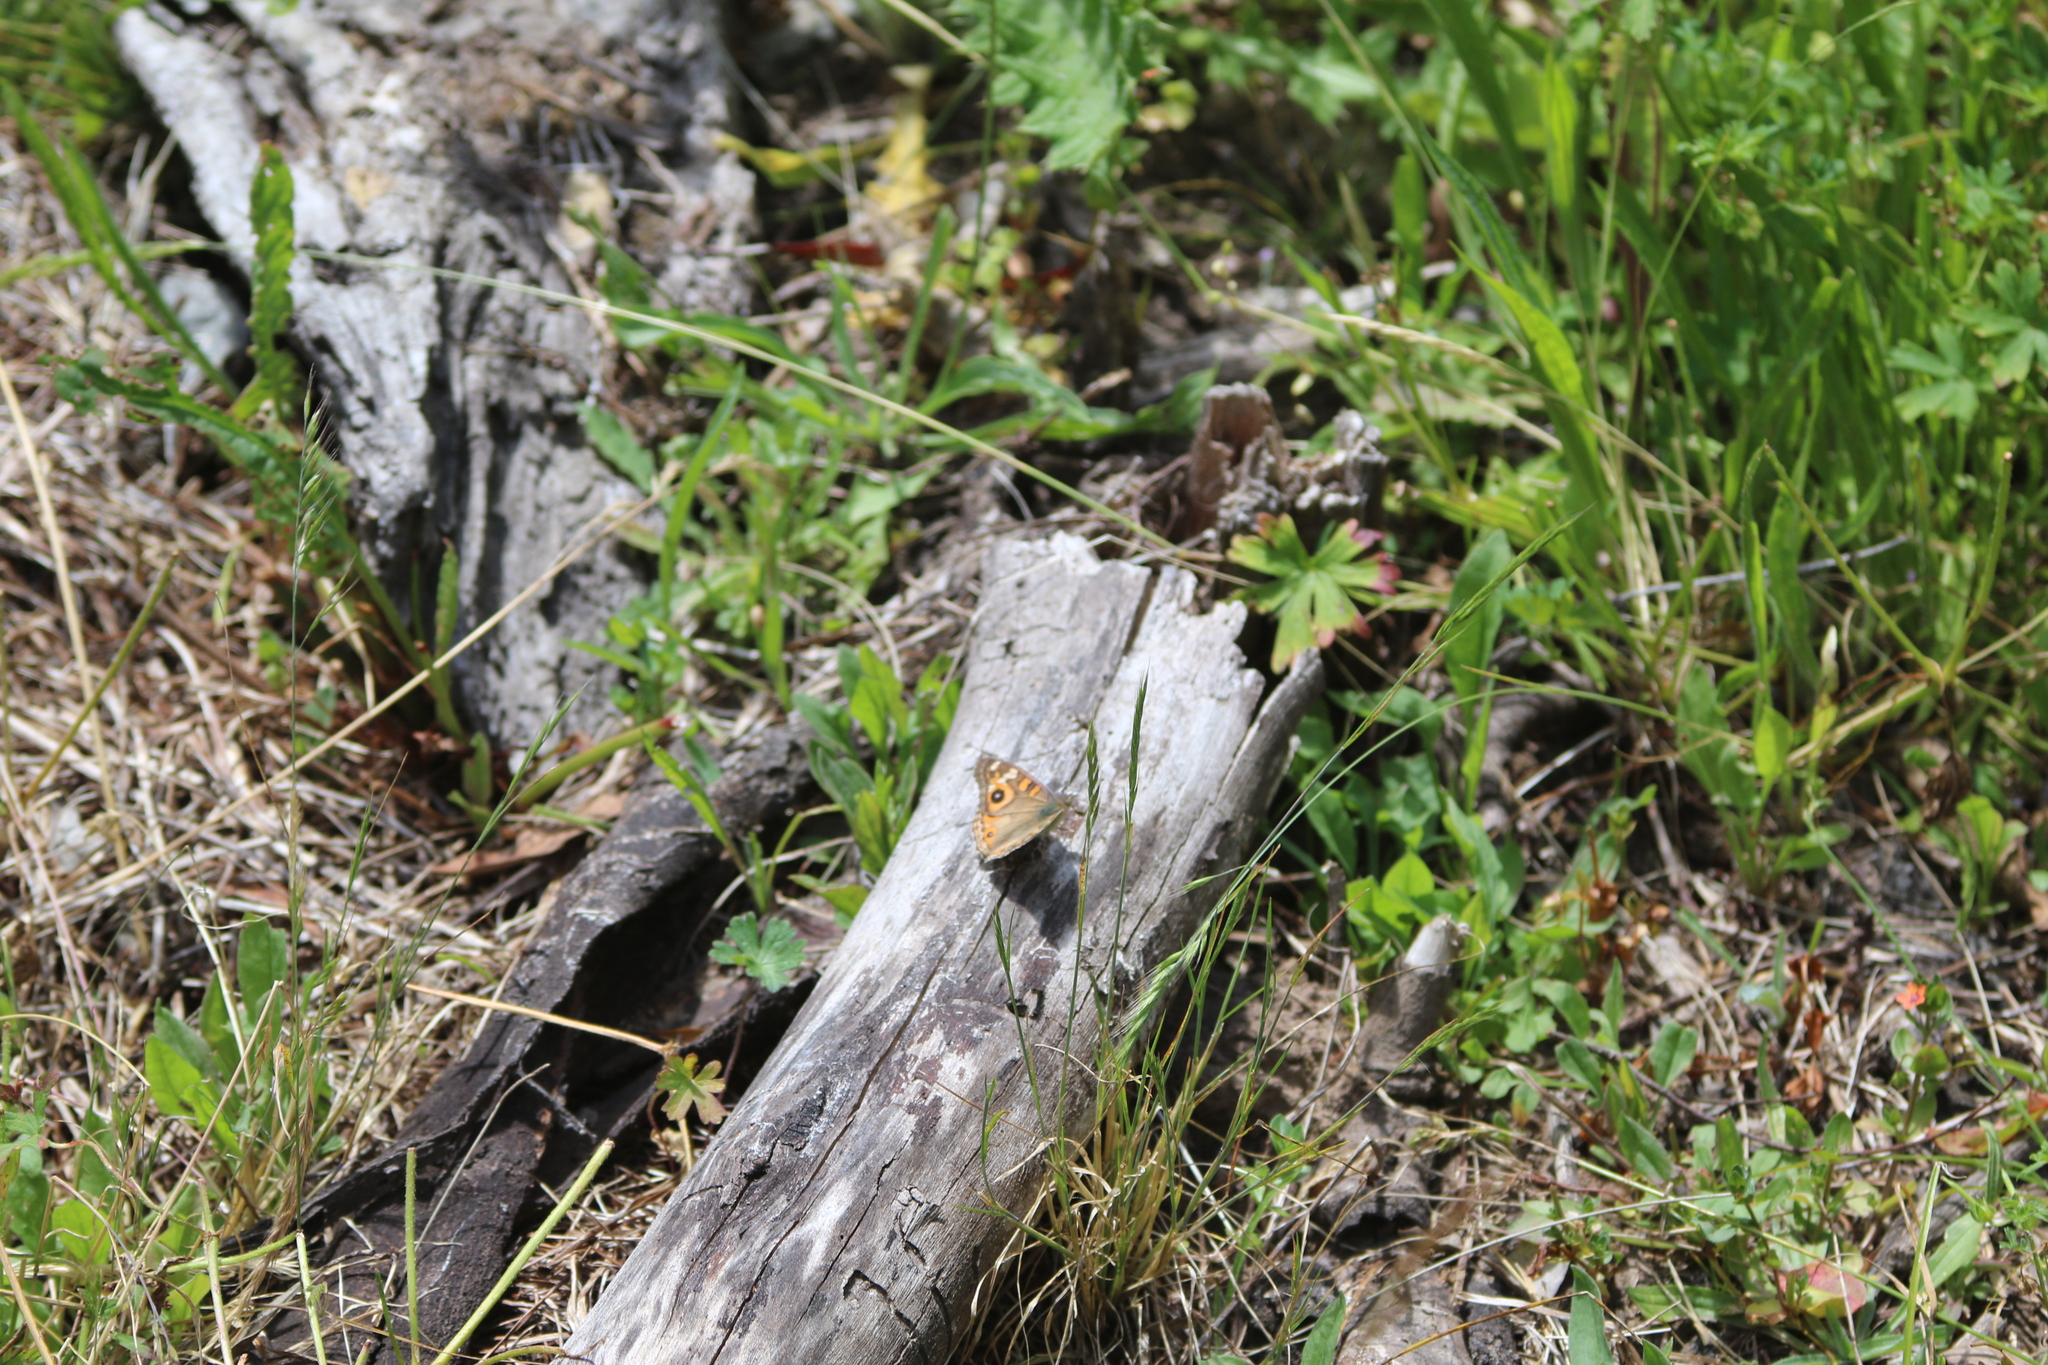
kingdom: Animalia
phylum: Arthropoda
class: Insecta
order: Lepidoptera
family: Nymphalidae
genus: Junonia
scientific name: Junonia villida
